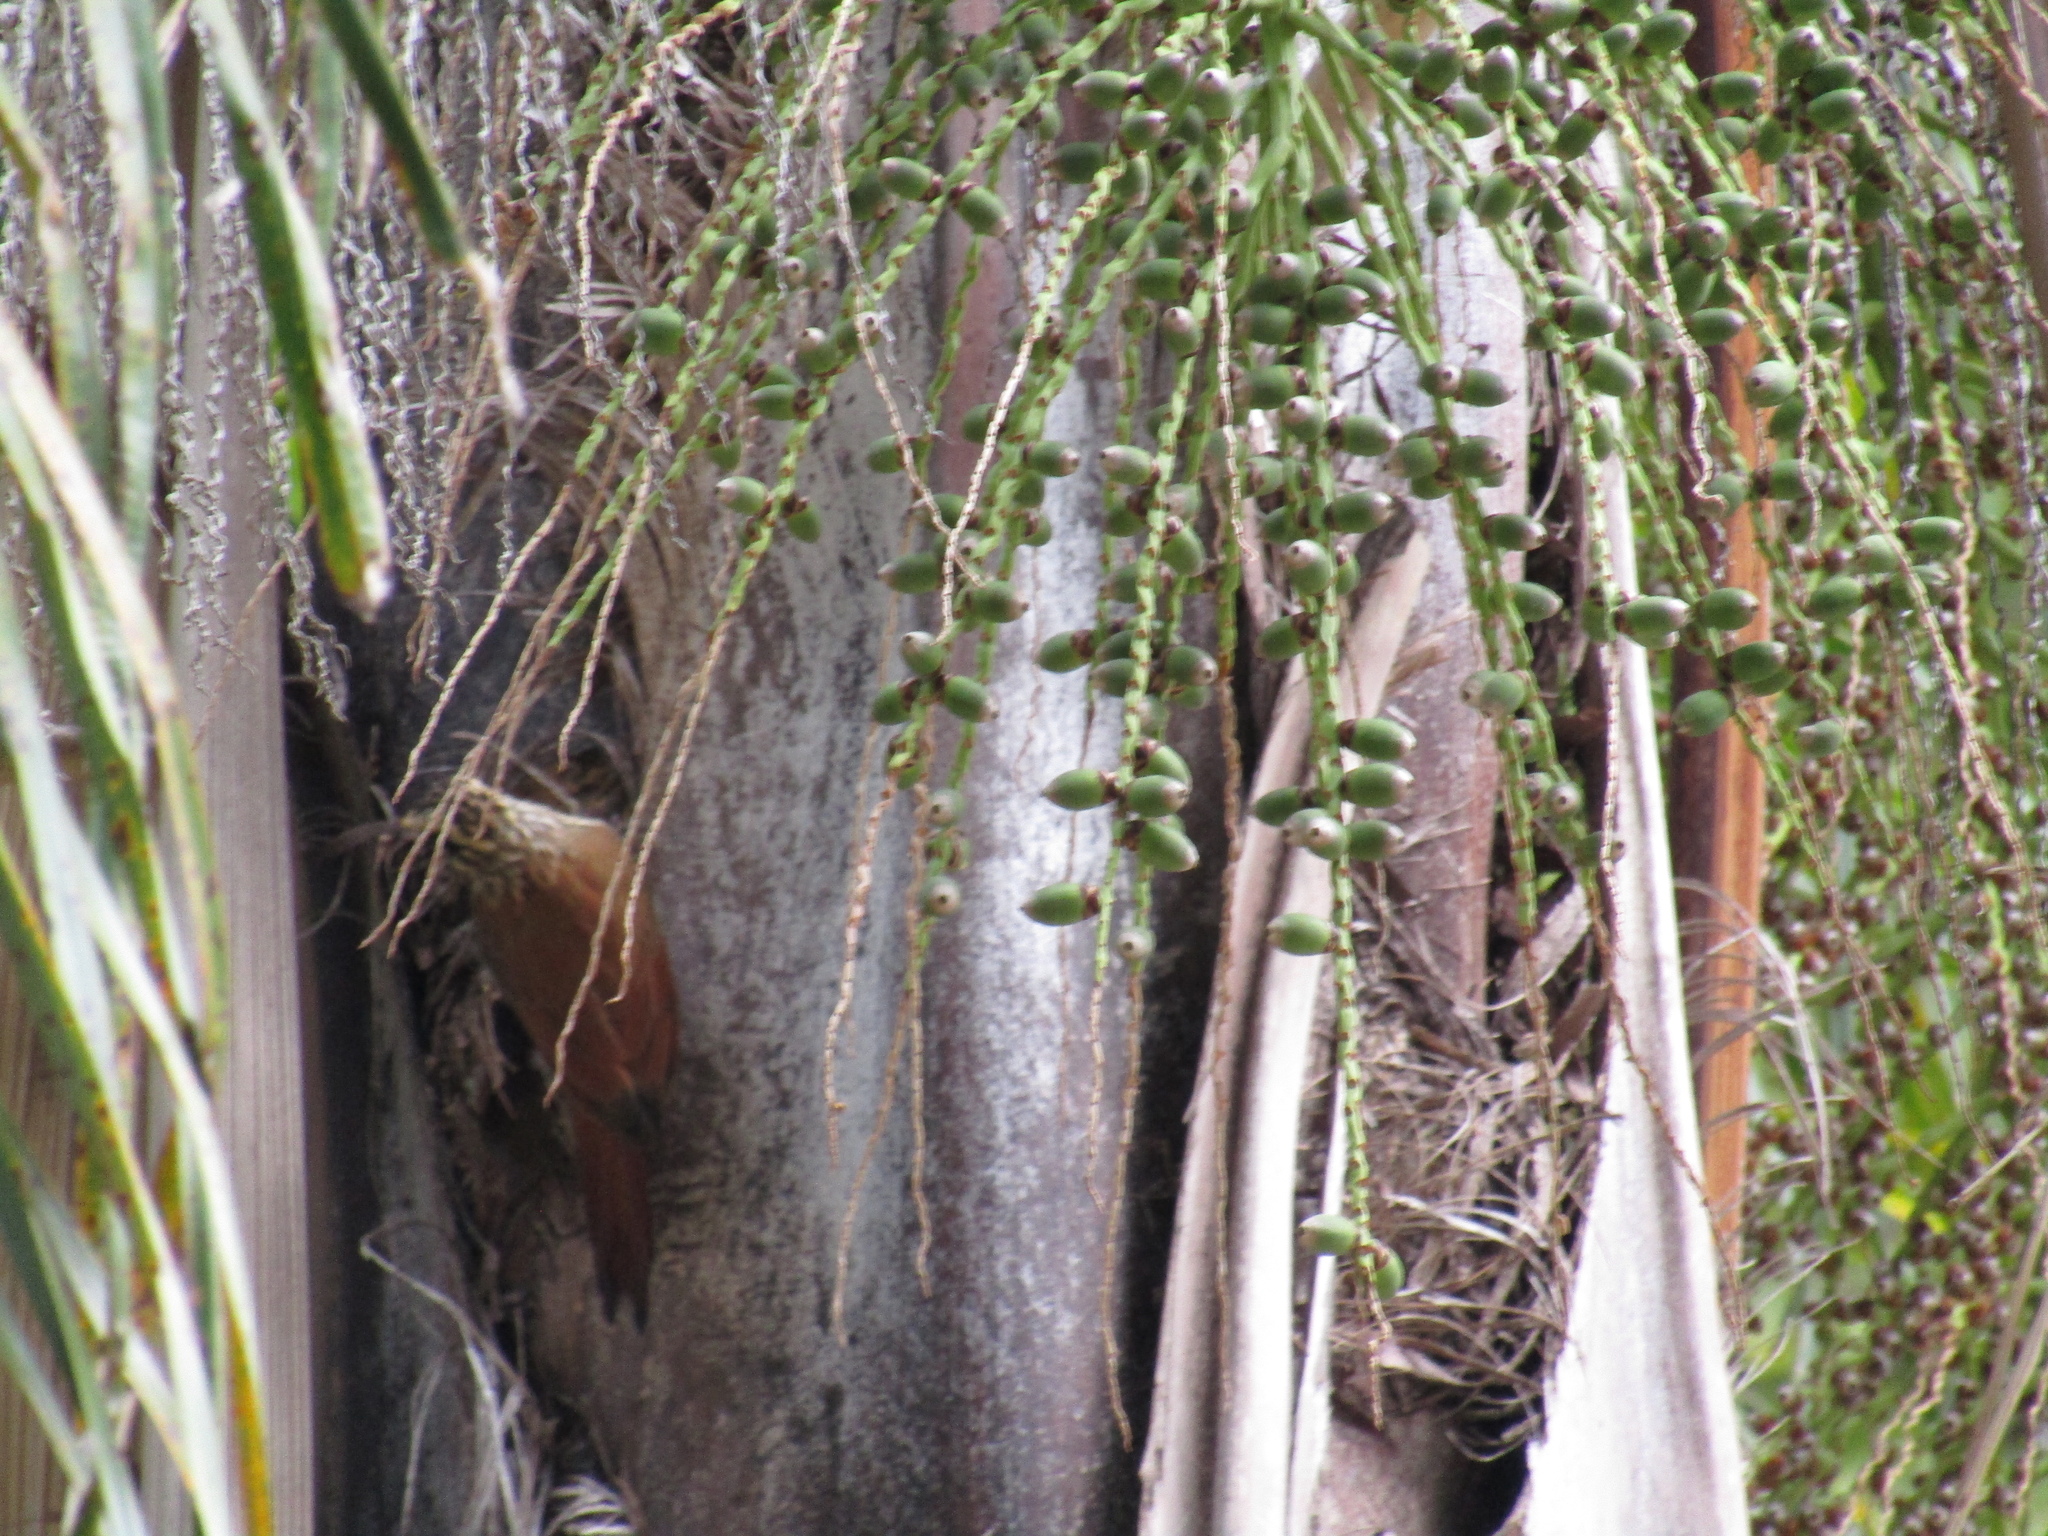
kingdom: Animalia
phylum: Chordata
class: Aves
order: Passeriformes
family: Furnariidae
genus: Lepidocolaptes
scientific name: Lepidocolaptes angustirostris
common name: Narrow-billed woodcreeper
